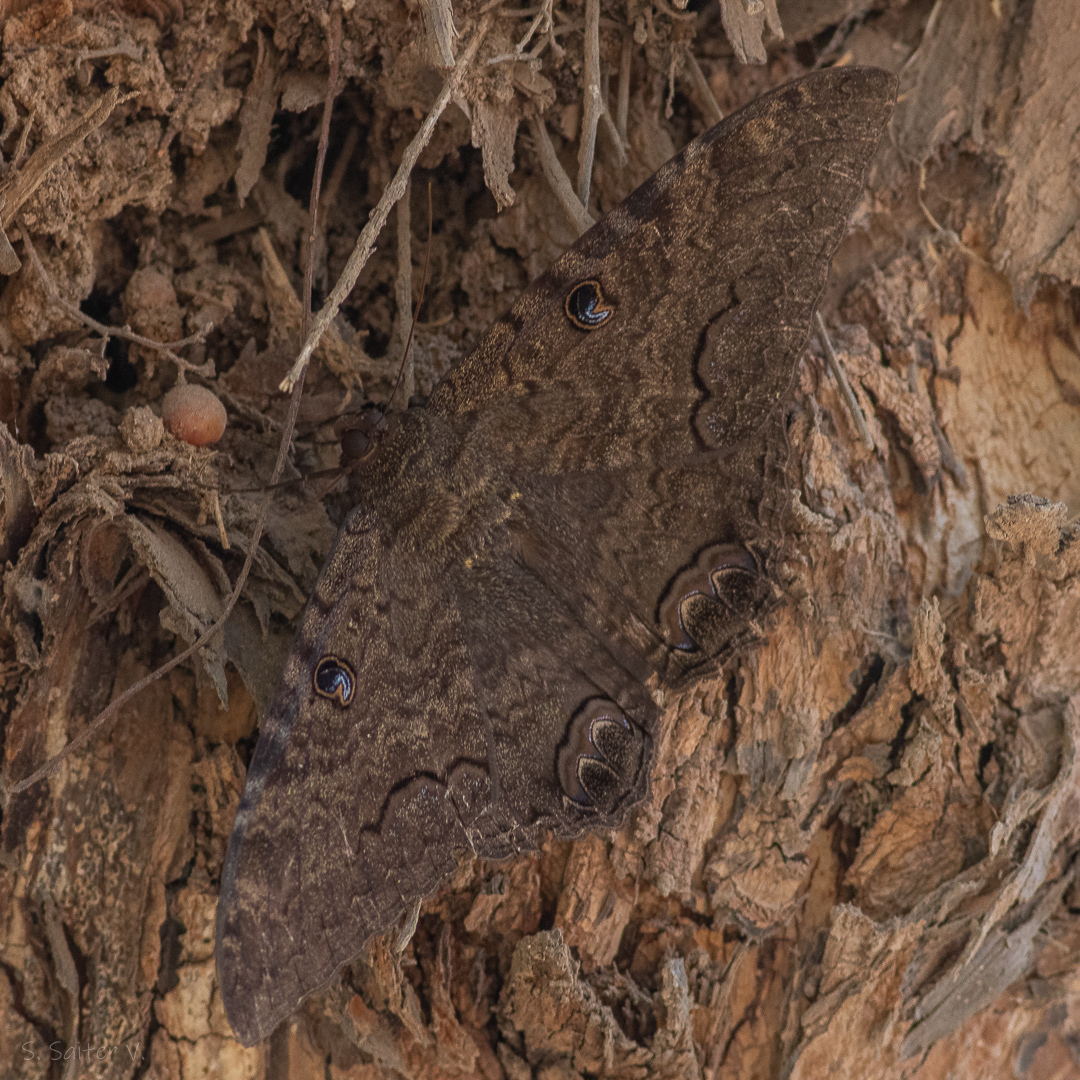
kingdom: Animalia
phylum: Arthropoda
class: Insecta
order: Lepidoptera
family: Erebidae
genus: Ascalapha
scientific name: Ascalapha odorata
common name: Black witch
